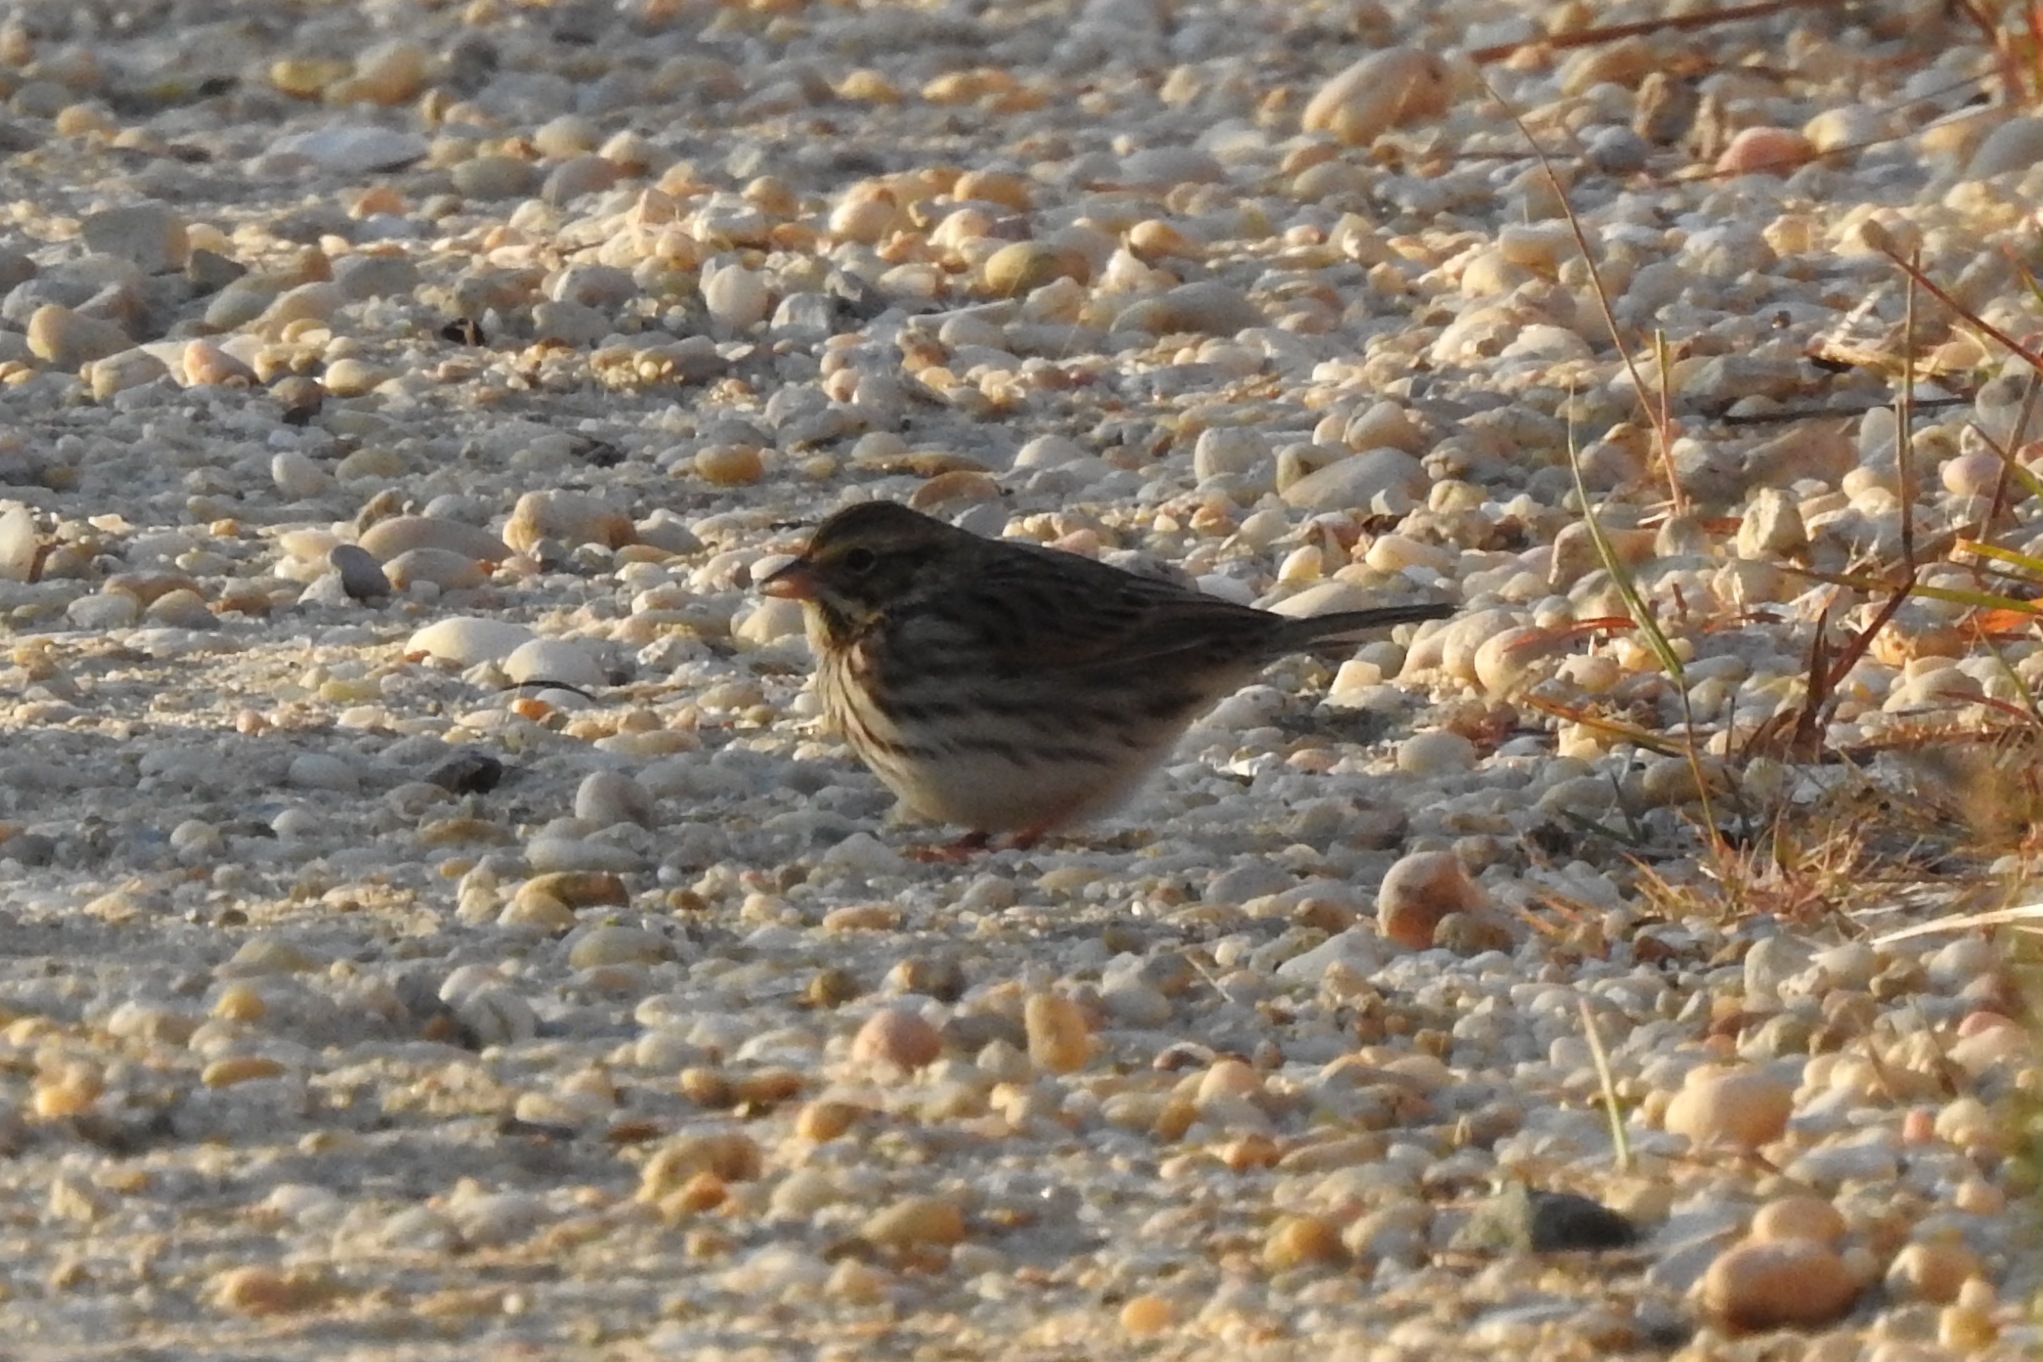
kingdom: Animalia
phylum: Chordata
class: Aves
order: Passeriformes
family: Passerellidae
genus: Passerculus
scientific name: Passerculus sandwichensis
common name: Savannah sparrow
